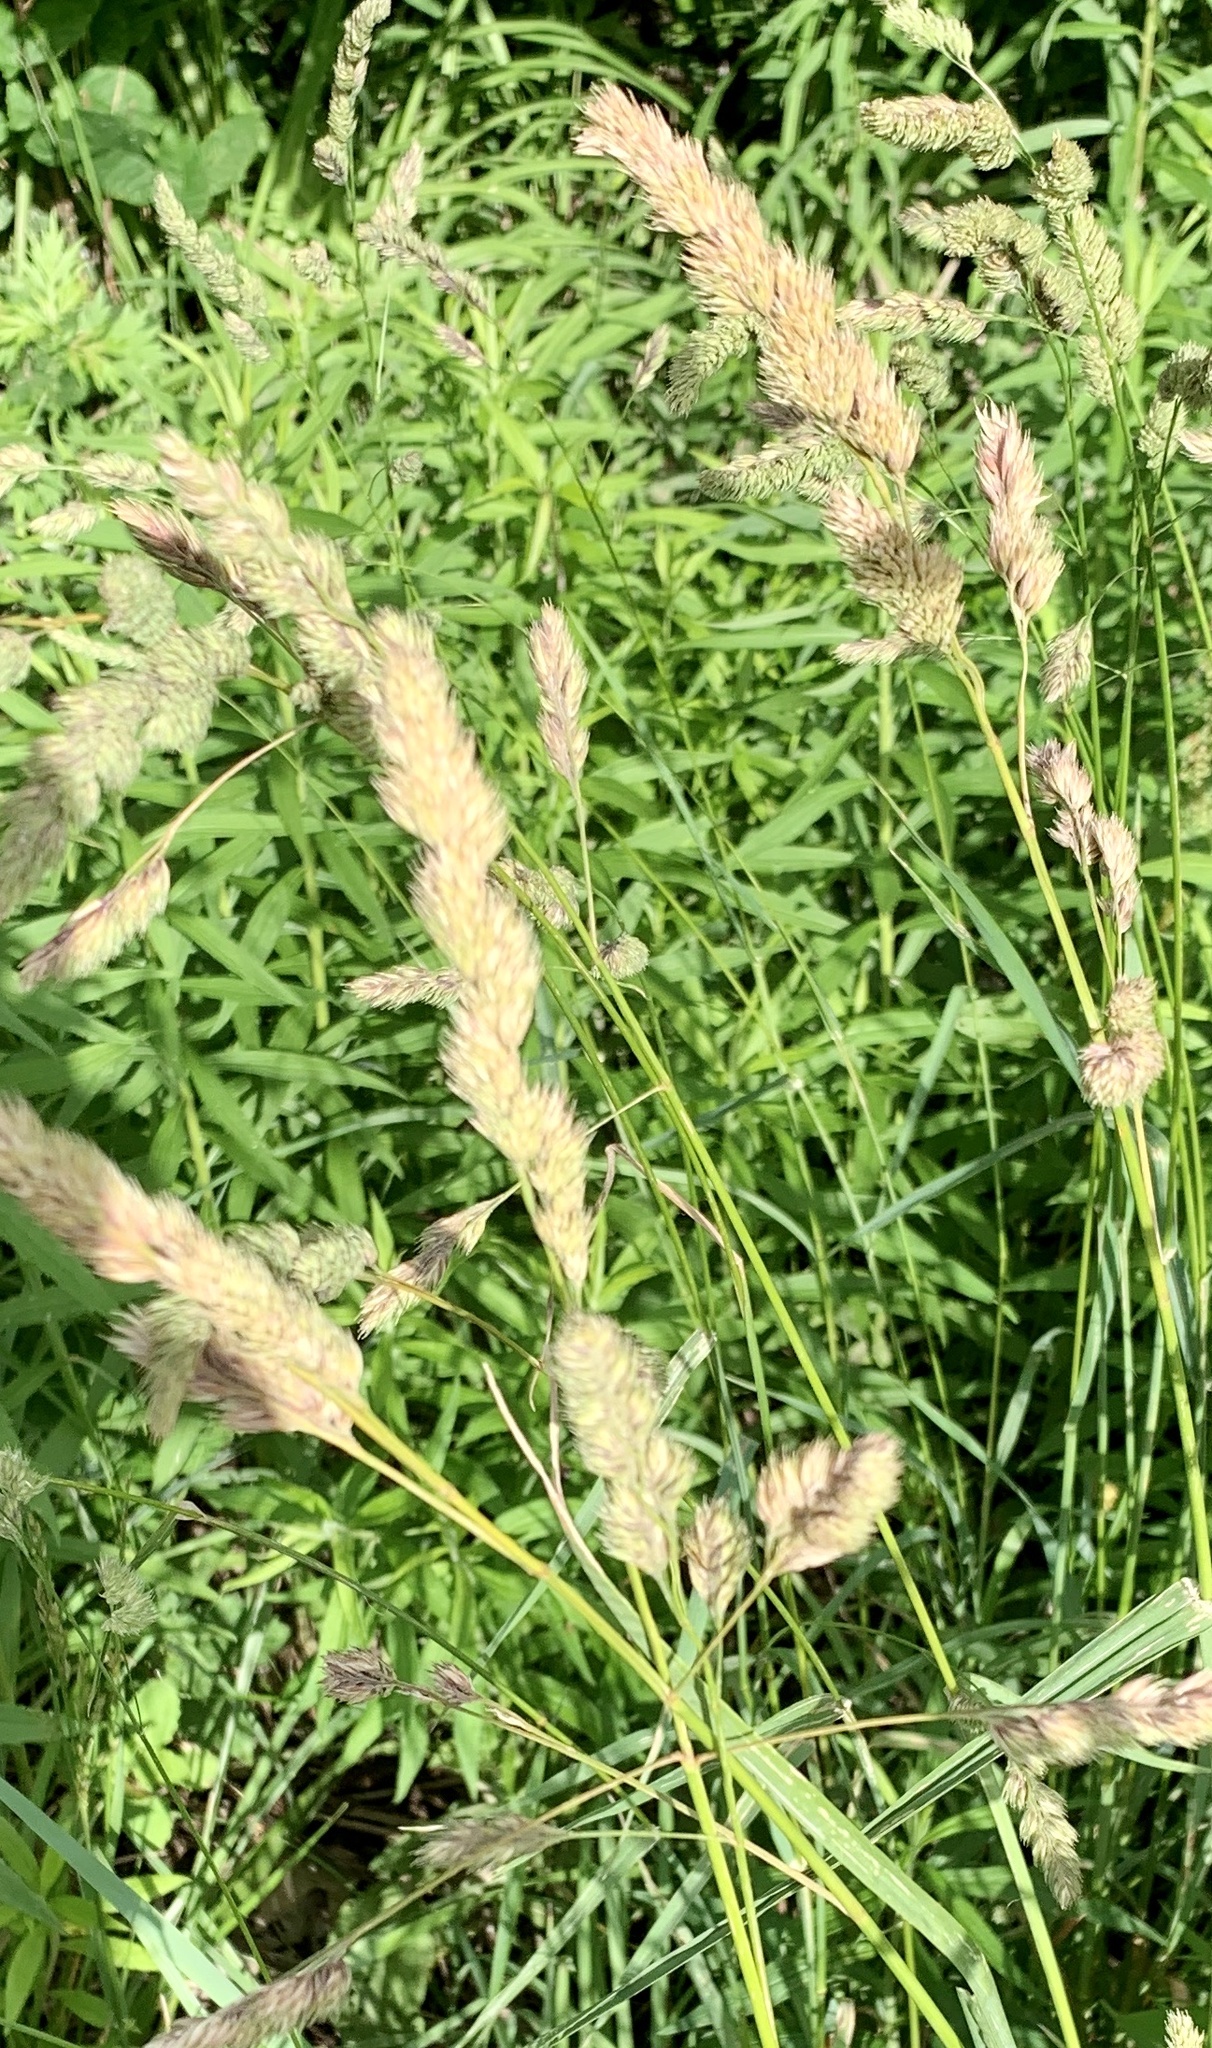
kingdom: Plantae
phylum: Tracheophyta
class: Liliopsida
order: Poales
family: Poaceae
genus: Dactylis
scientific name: Dactylis glomerata
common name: Orchardgrass
